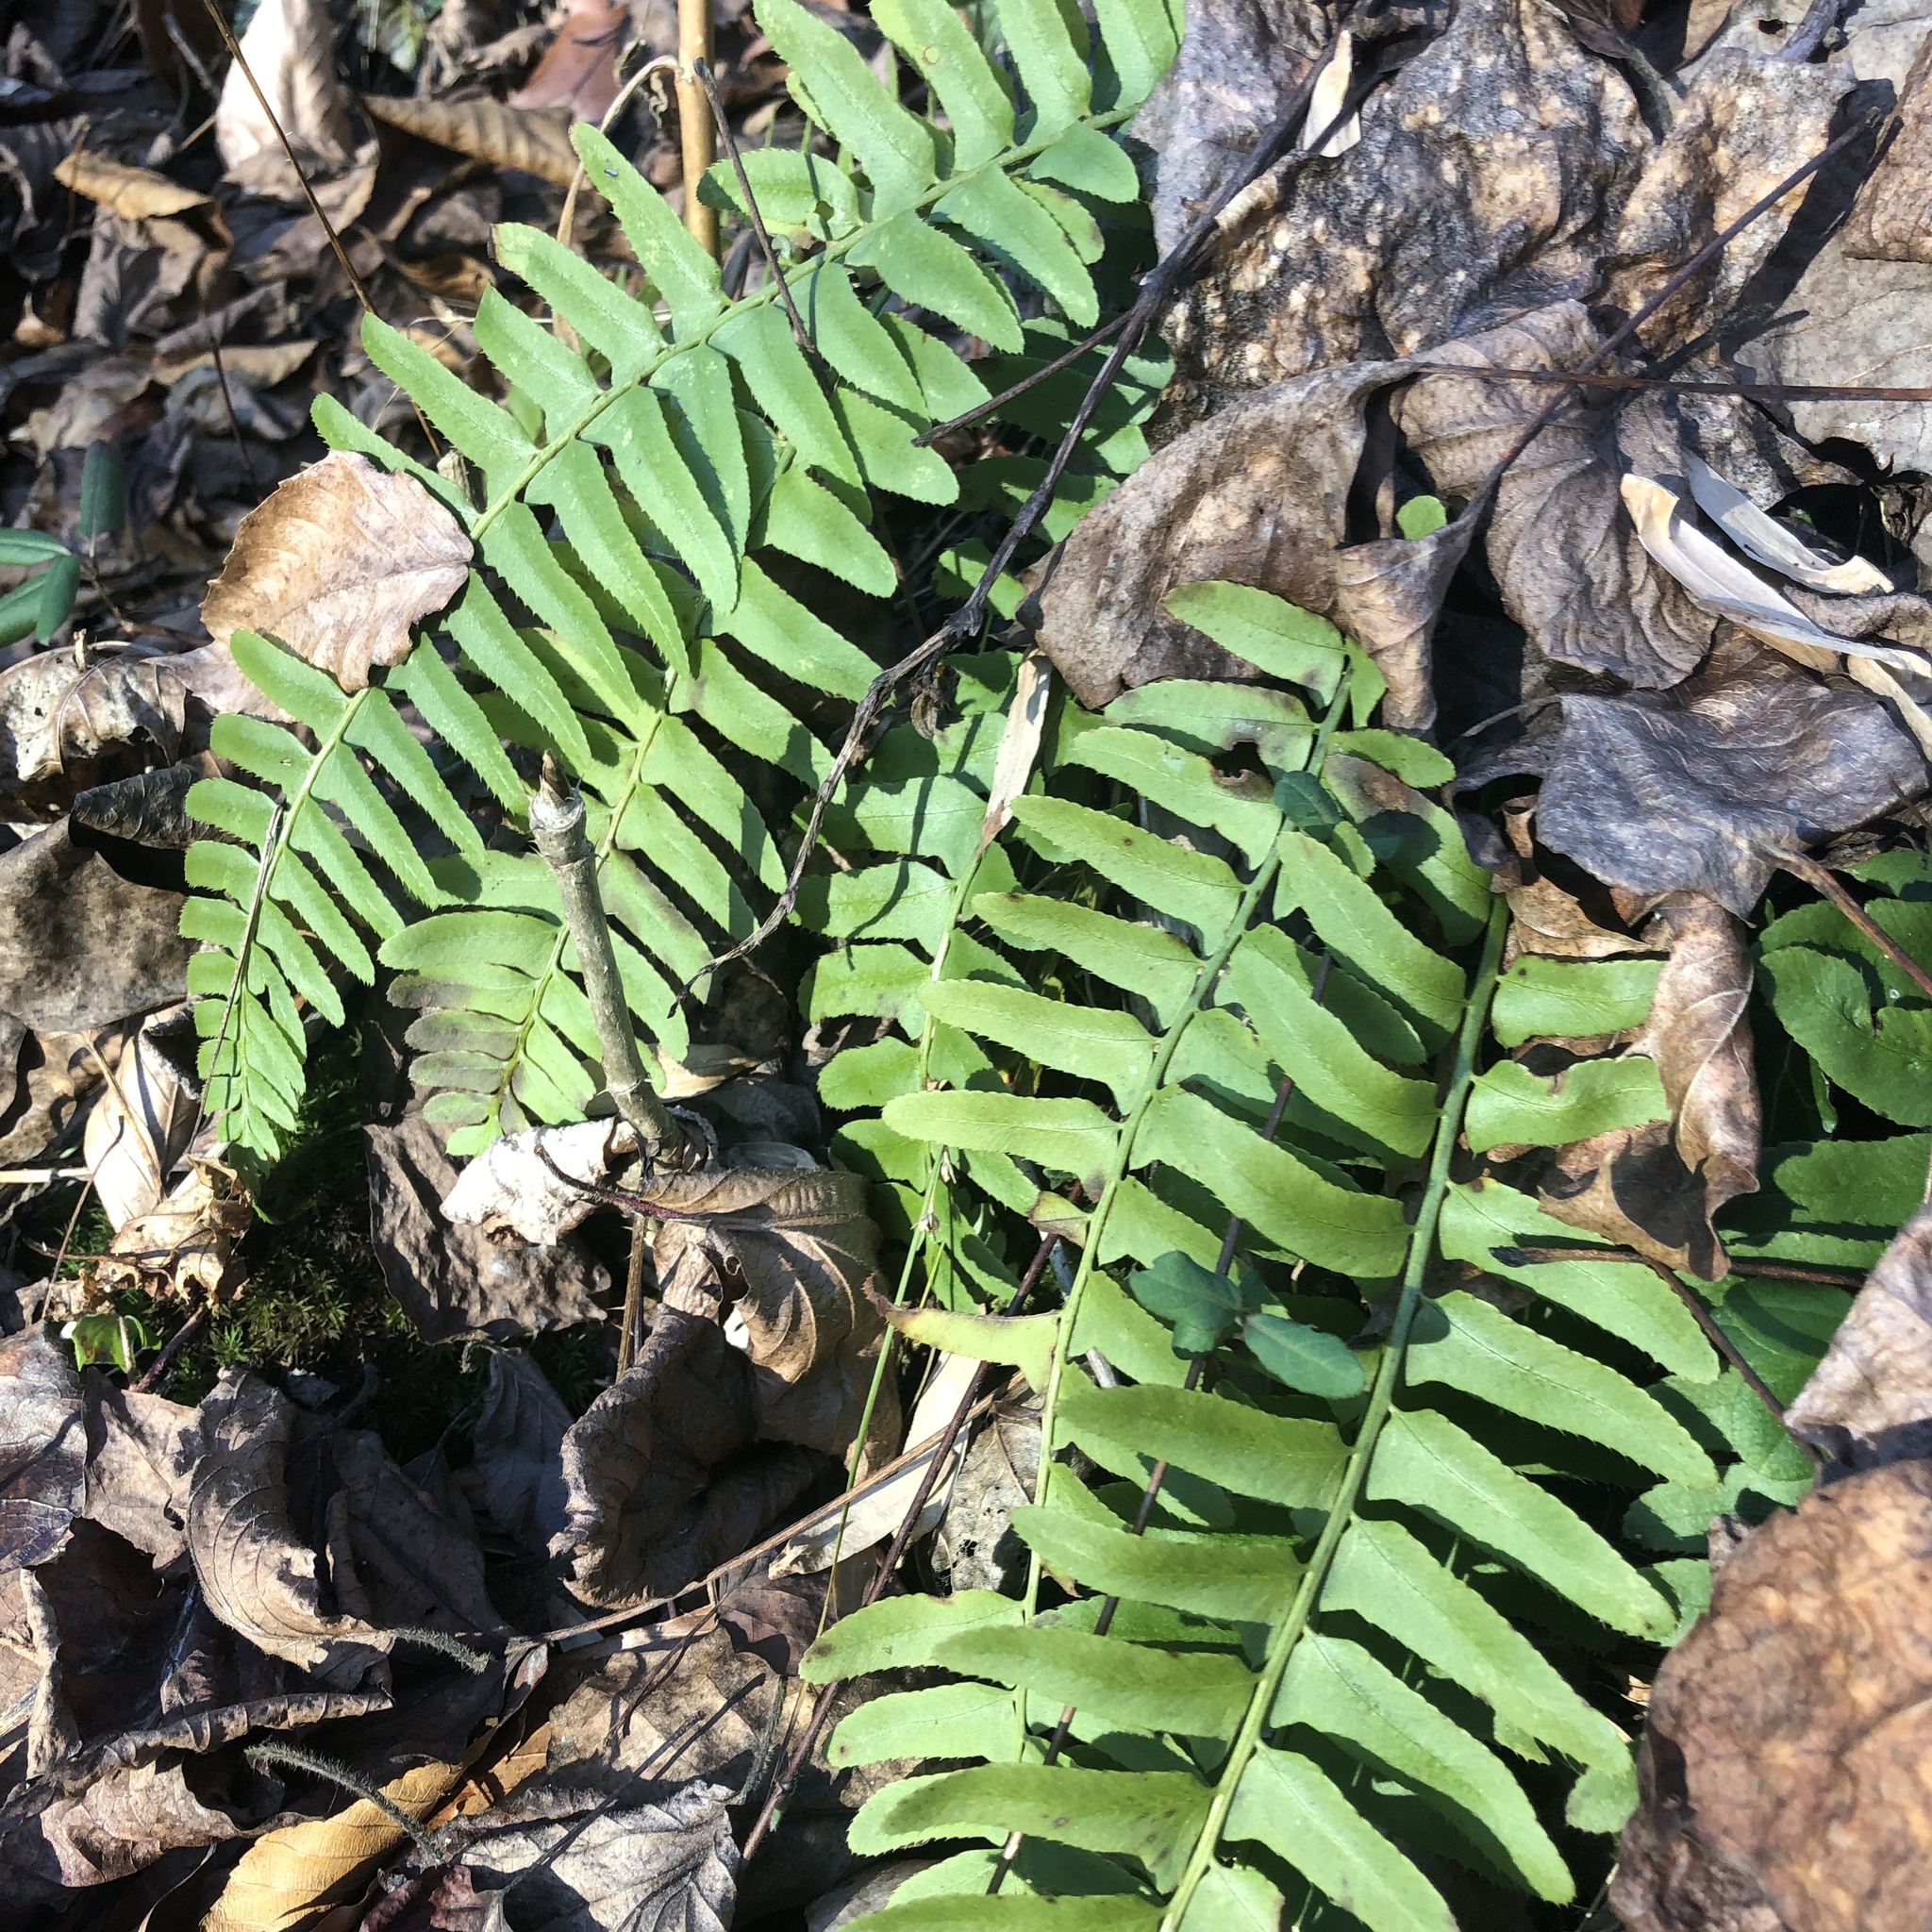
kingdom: Plantae
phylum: Tracheophyta
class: Polypodiopsida
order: Polypodiales
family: Dryopteridaceae
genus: Polystichum
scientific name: Polystichum acrostichoides
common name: Christmas fern
